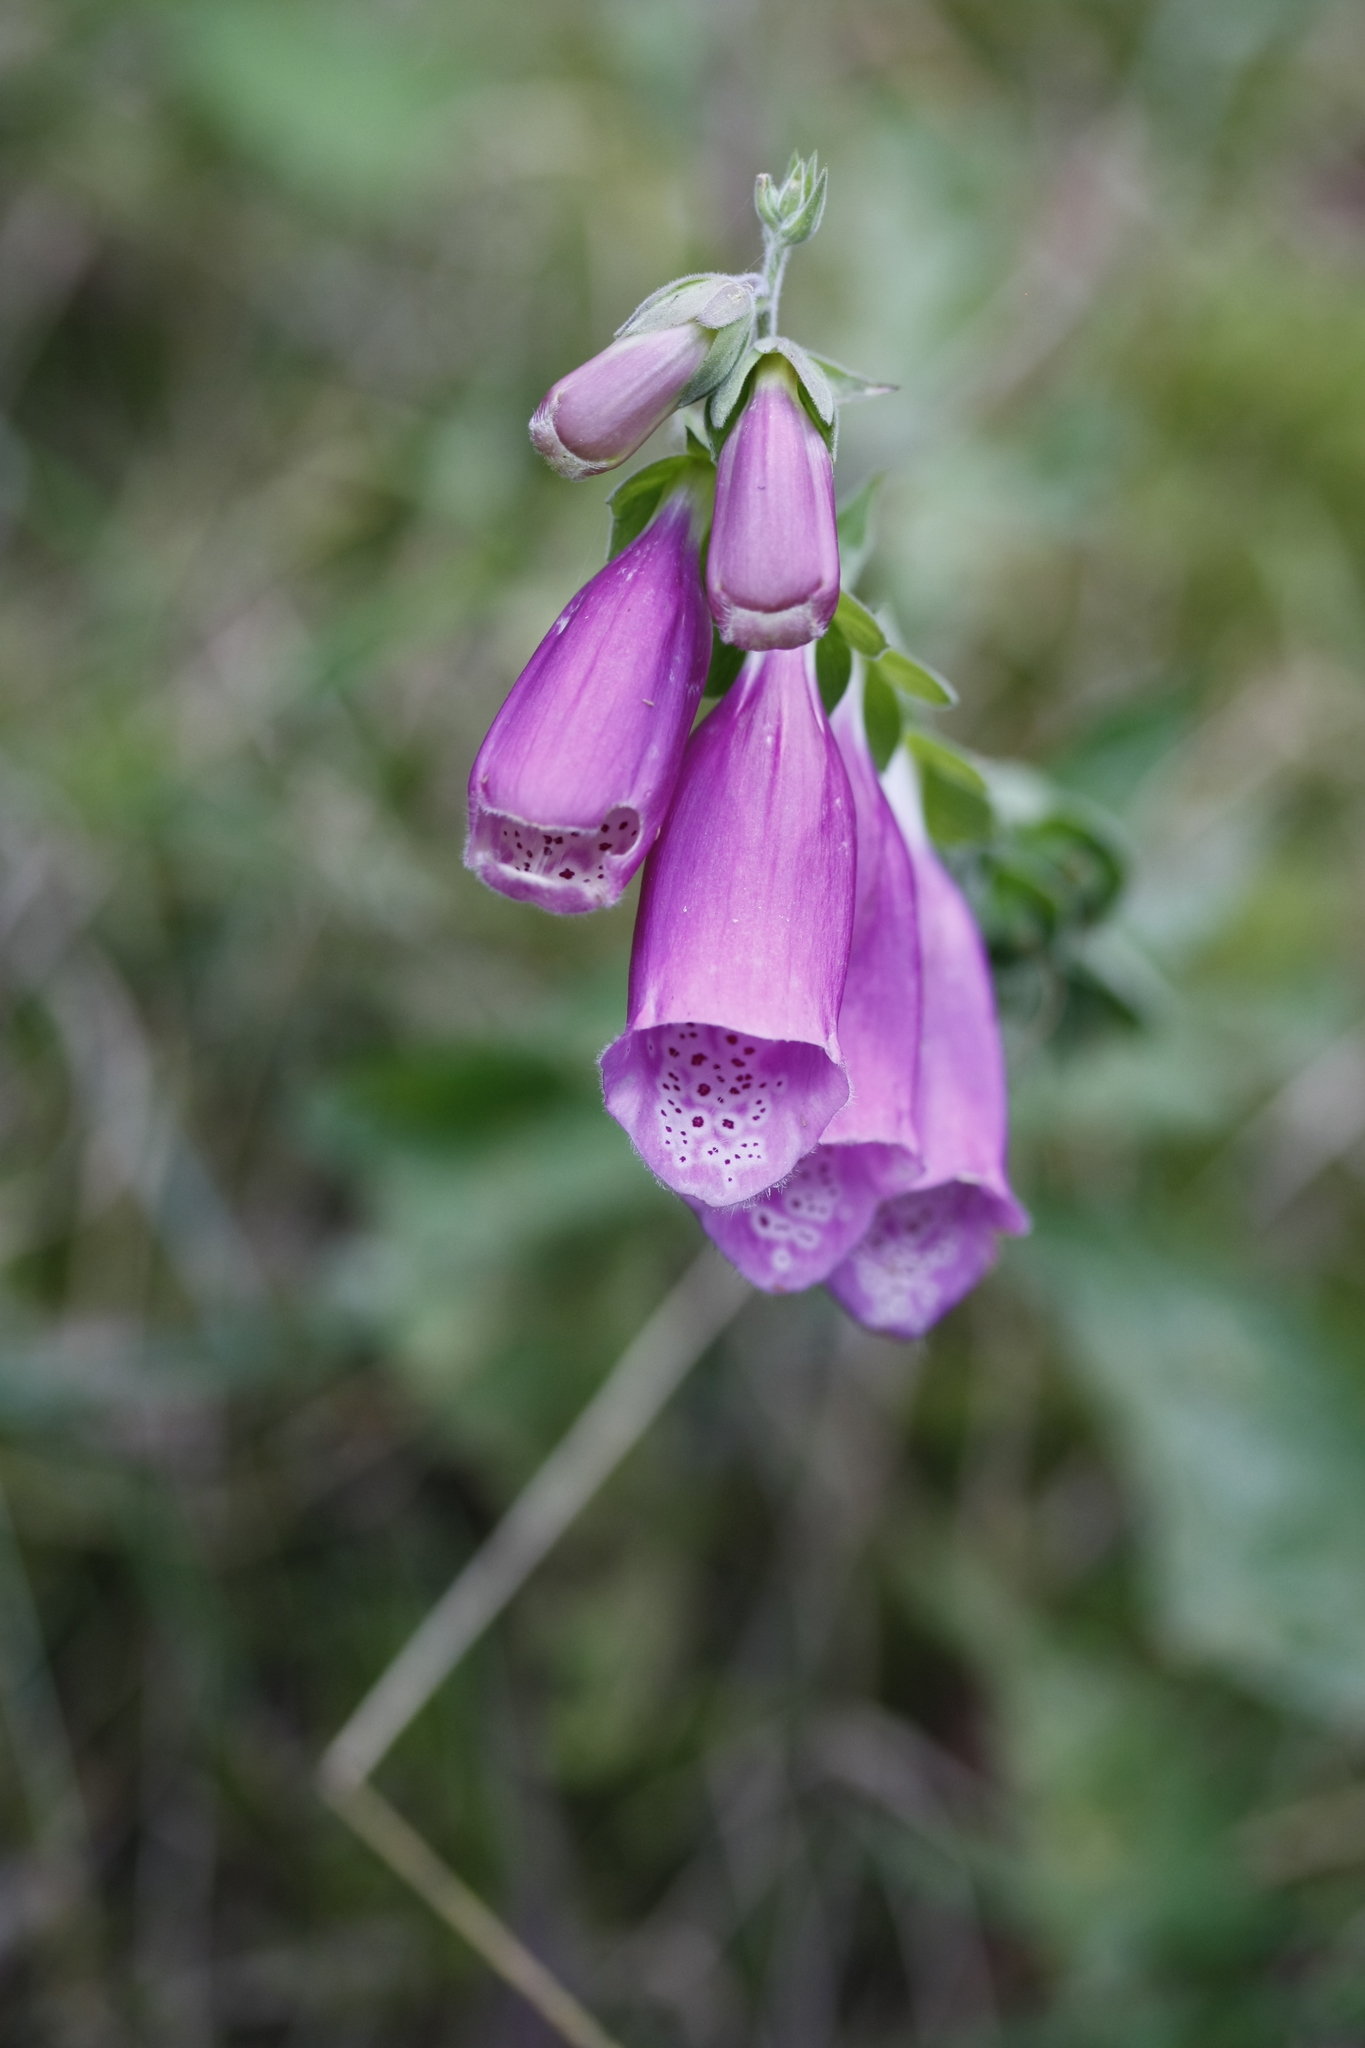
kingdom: Plantae
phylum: Tracheophyta
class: Magnoliopsida
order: Lamiales
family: Plantaginaceae
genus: Digitalis
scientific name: Digitalis purpurea
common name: Foxglove
